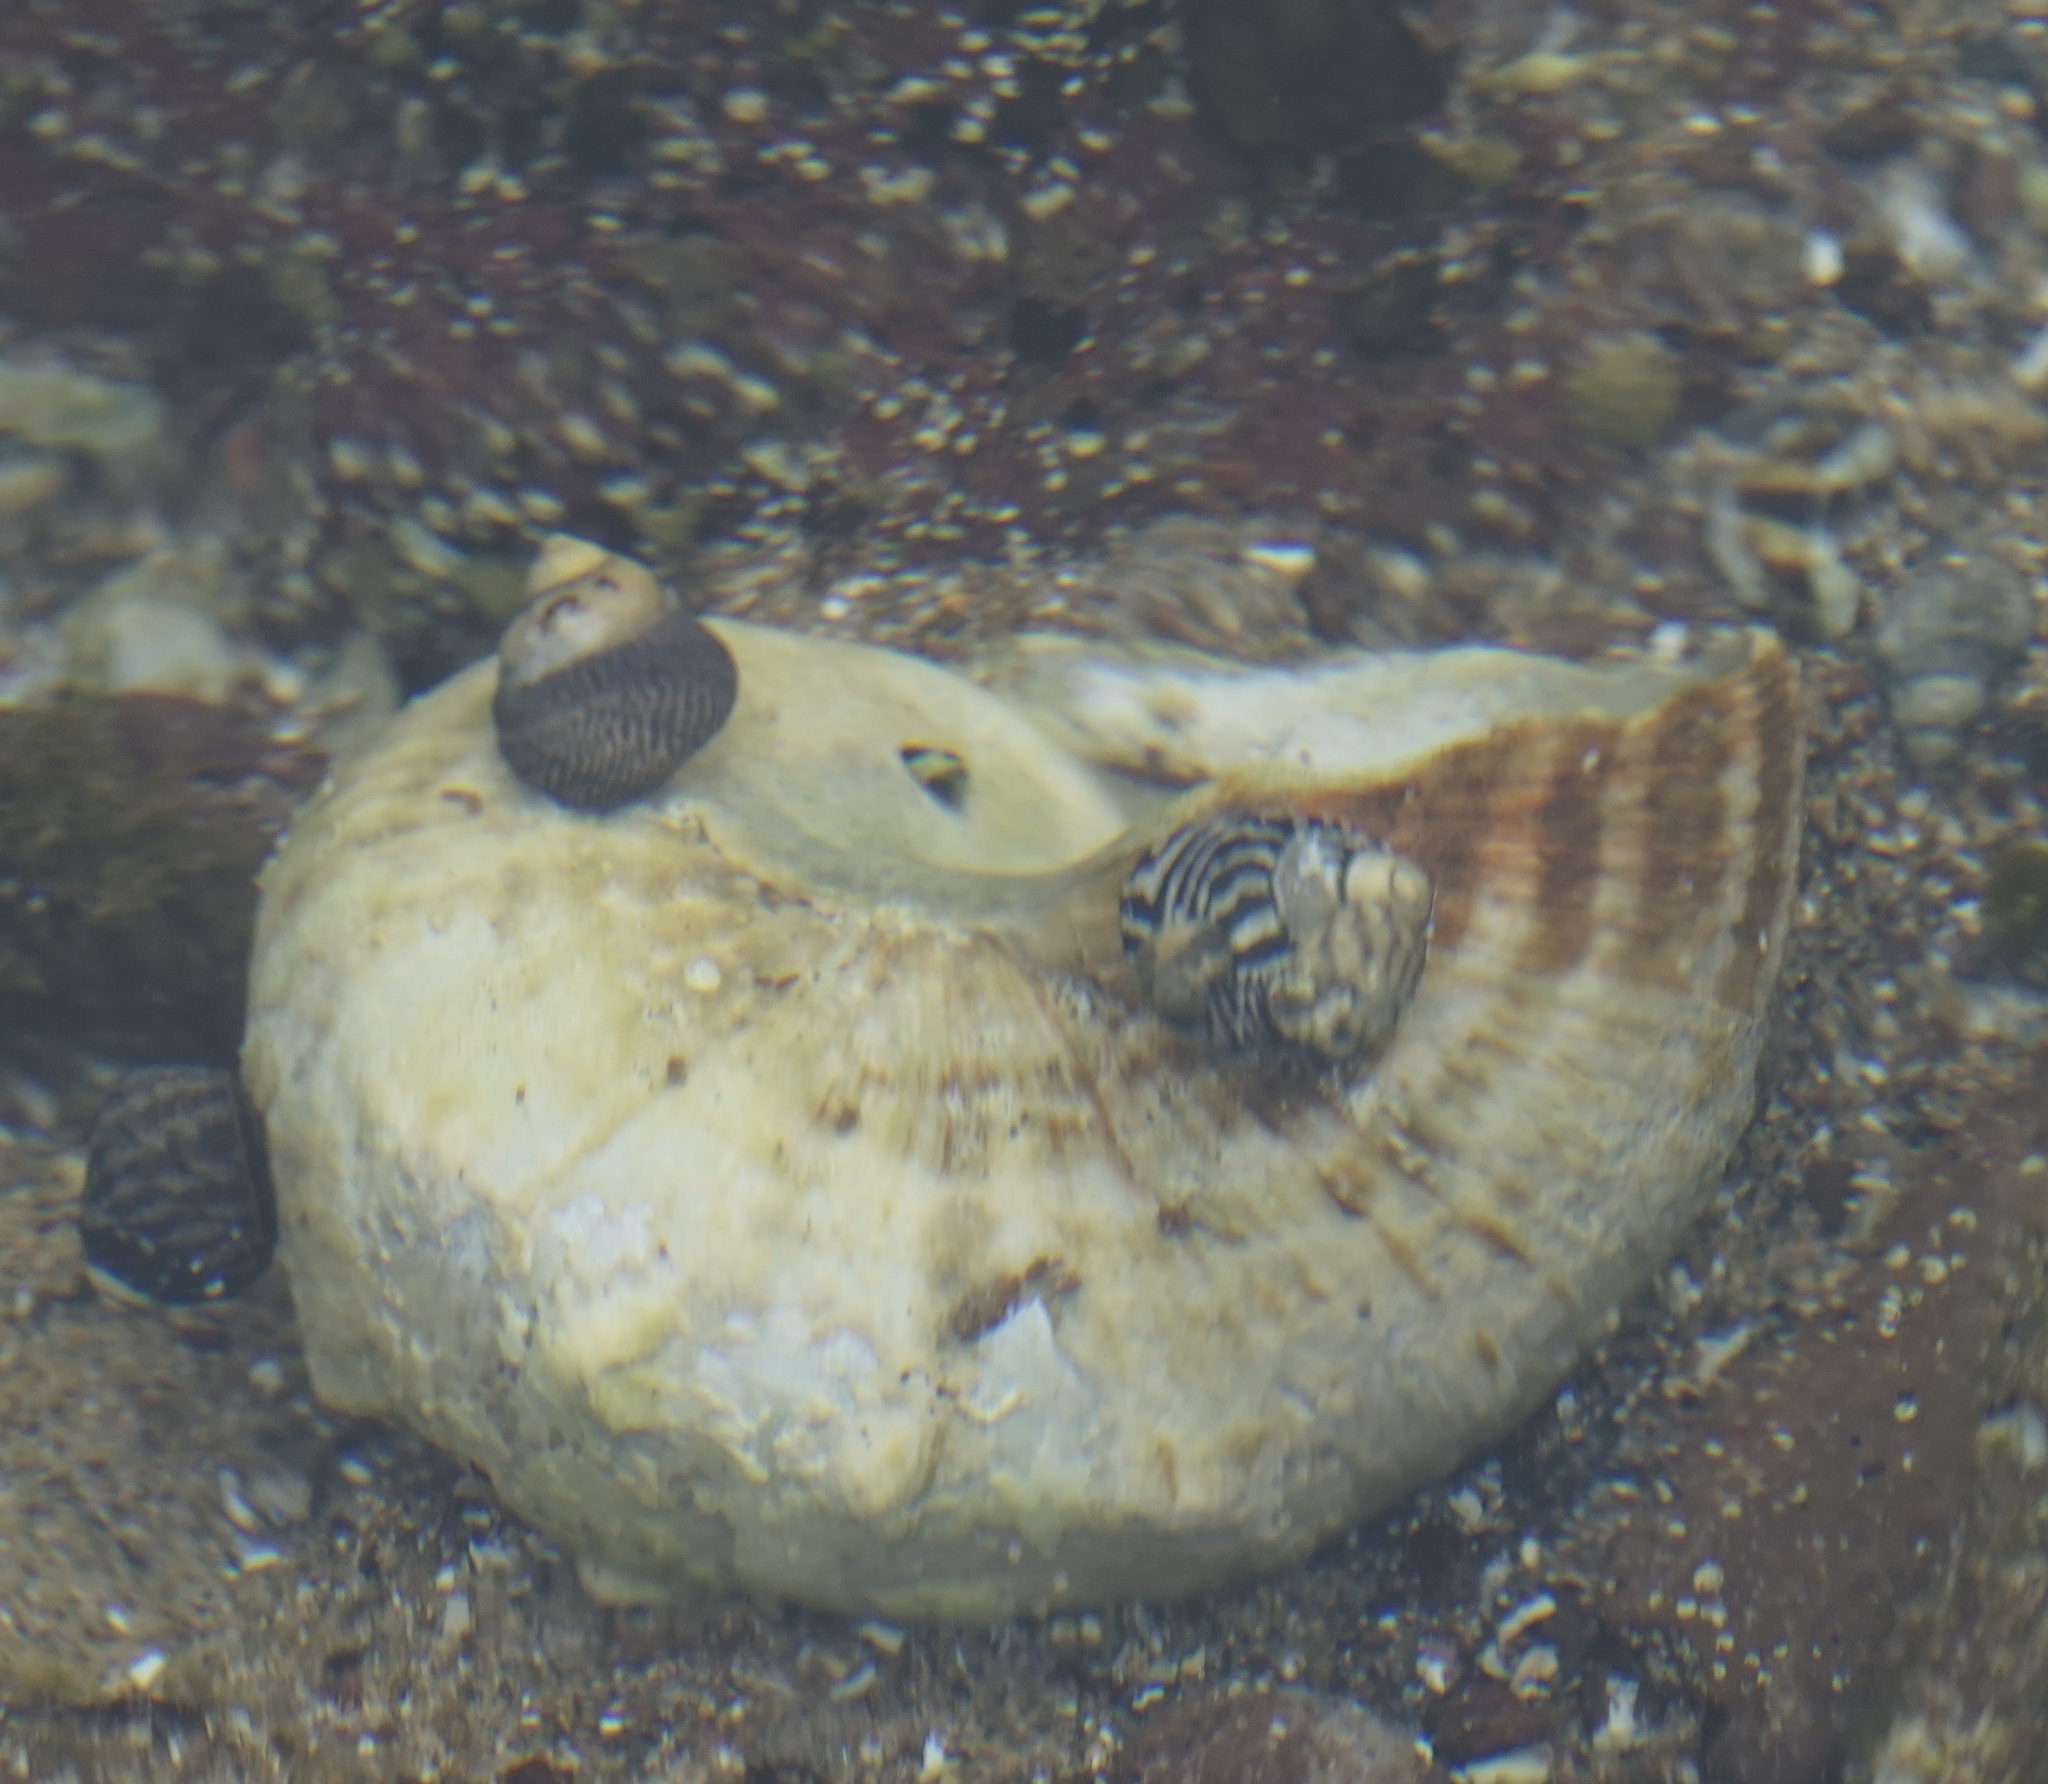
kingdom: Animalia
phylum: Mollusca
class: Gastropoda
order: Trochida
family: Turbinidae
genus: Turbo
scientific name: Turbo militaris
